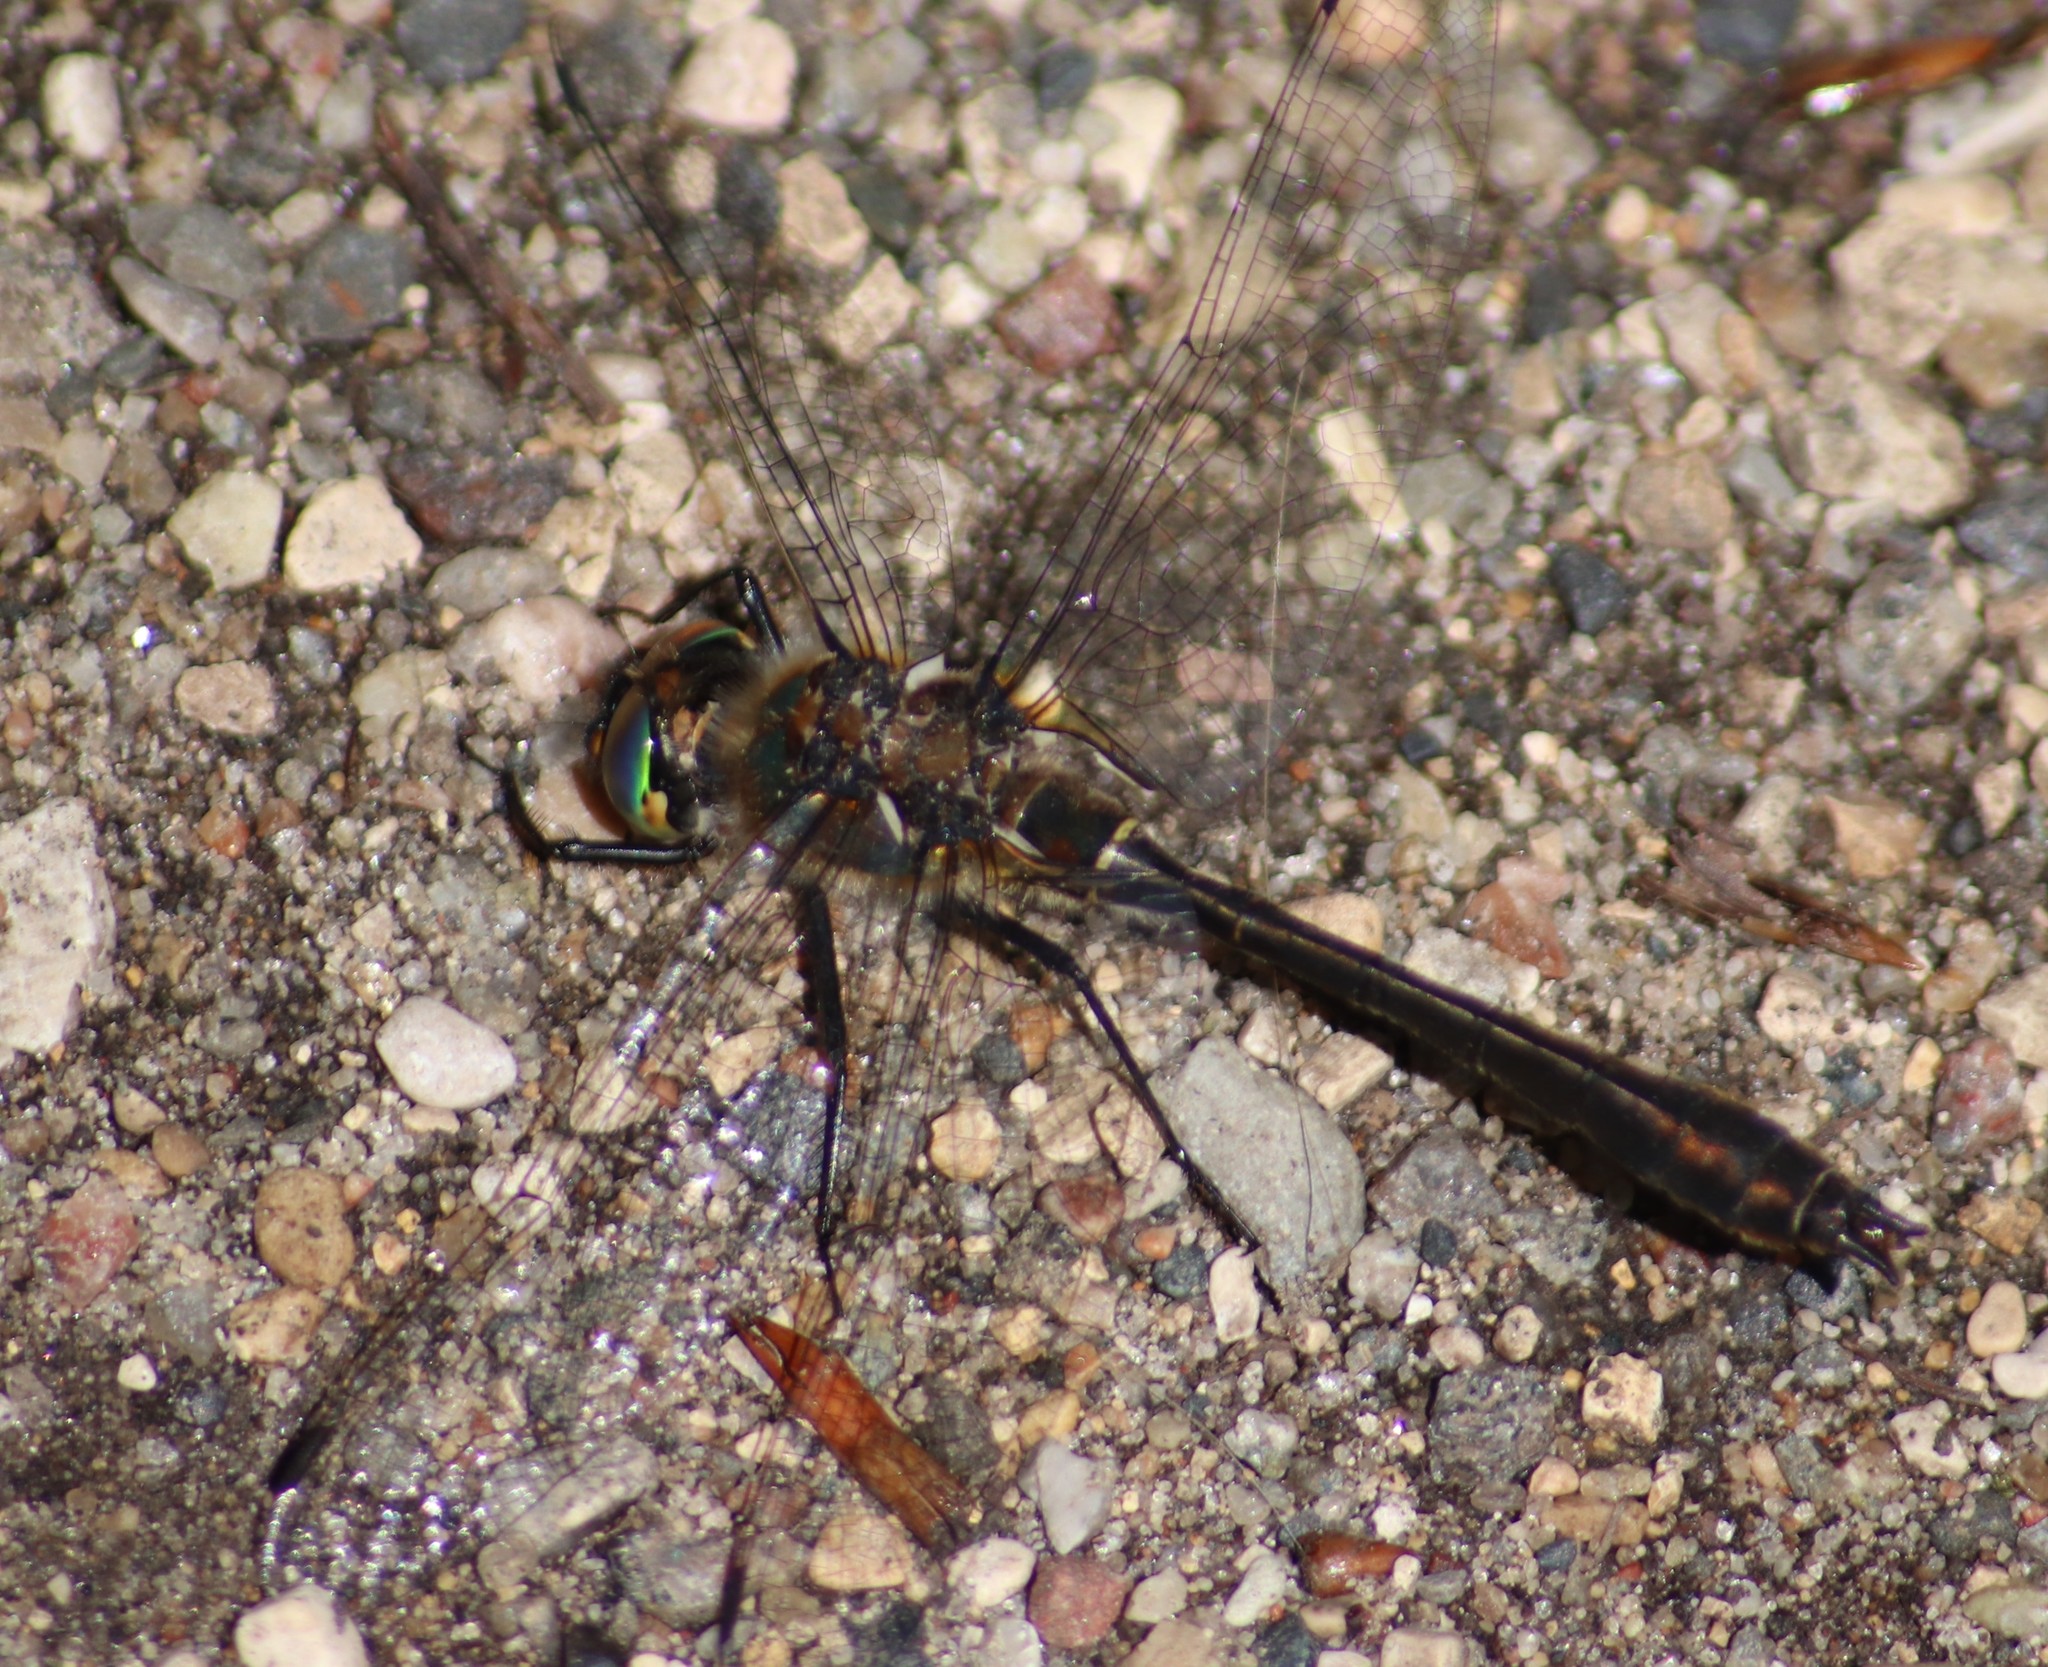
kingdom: Animalia
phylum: Arthropoda
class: Insecta
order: Odonata
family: Corduliidae
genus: Cordulia
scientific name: Cordulia shurtleffii
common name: American emerald
